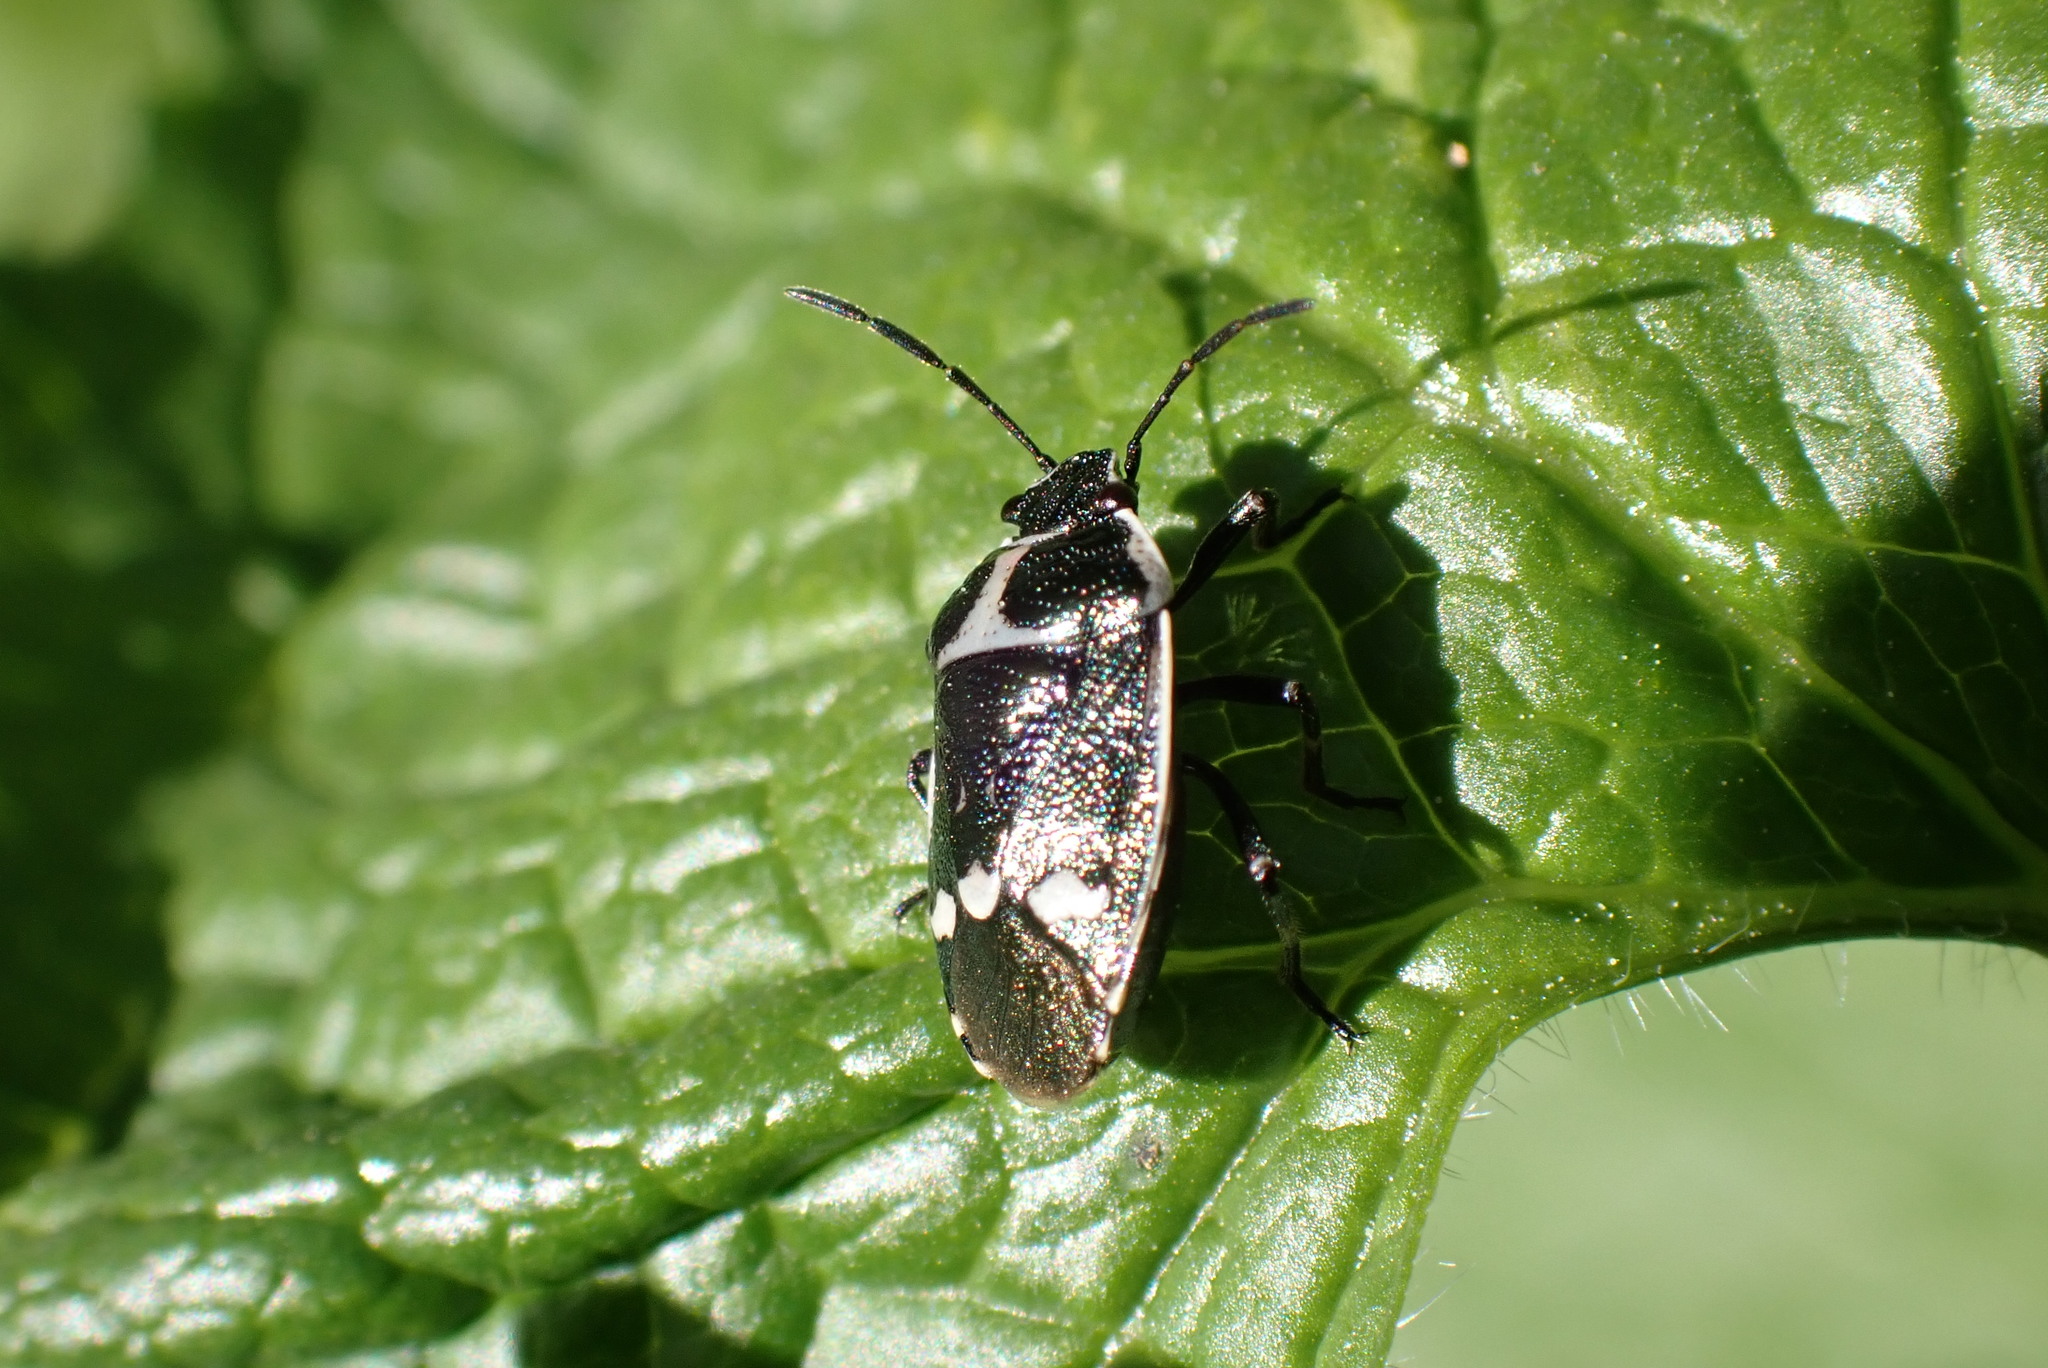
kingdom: Animalia
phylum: Arthropoda
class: Insecta
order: Hemiptera
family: Pentatomidae
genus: Eurydema
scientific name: Eurydema oleracea
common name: Cabbage bug
